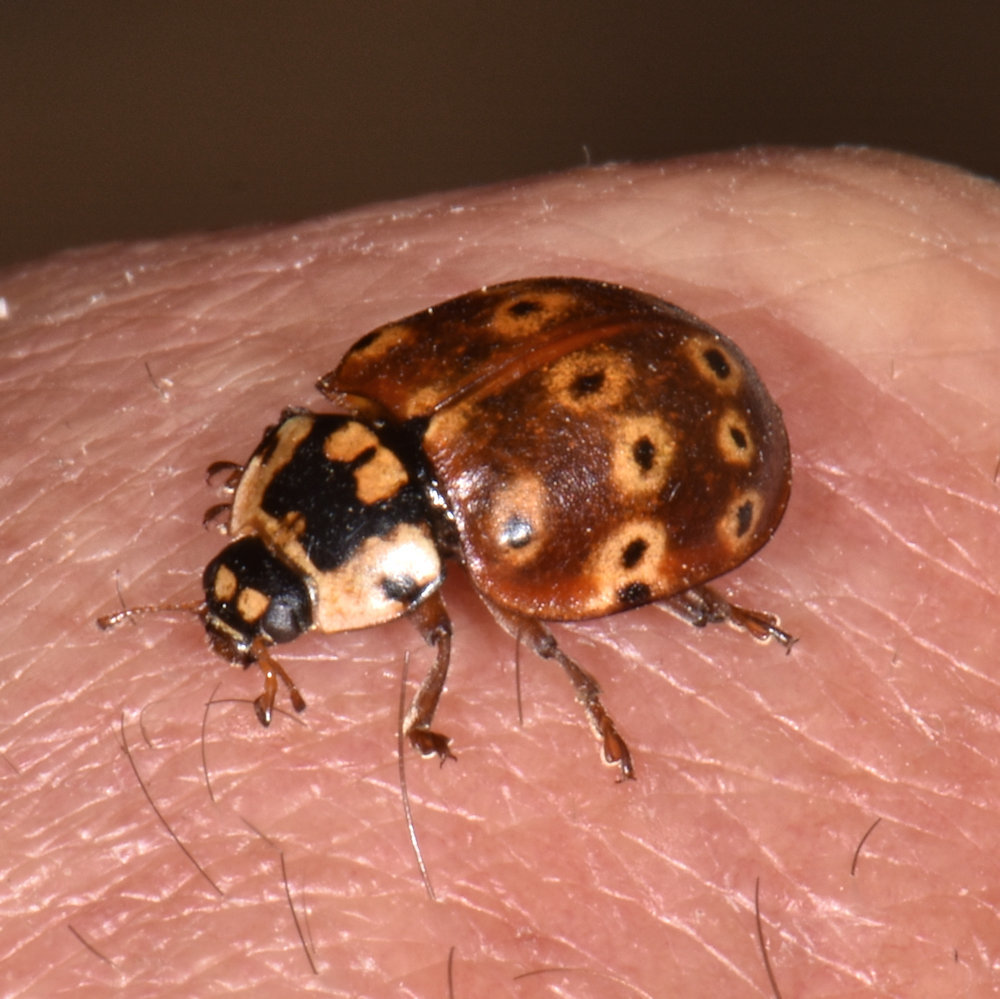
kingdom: Animalia
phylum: Arthropoda
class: Insecta
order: Coleoptera
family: Coccinellidae
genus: Anatis
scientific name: Anatis mali
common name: Eye-spotted lady beetle
